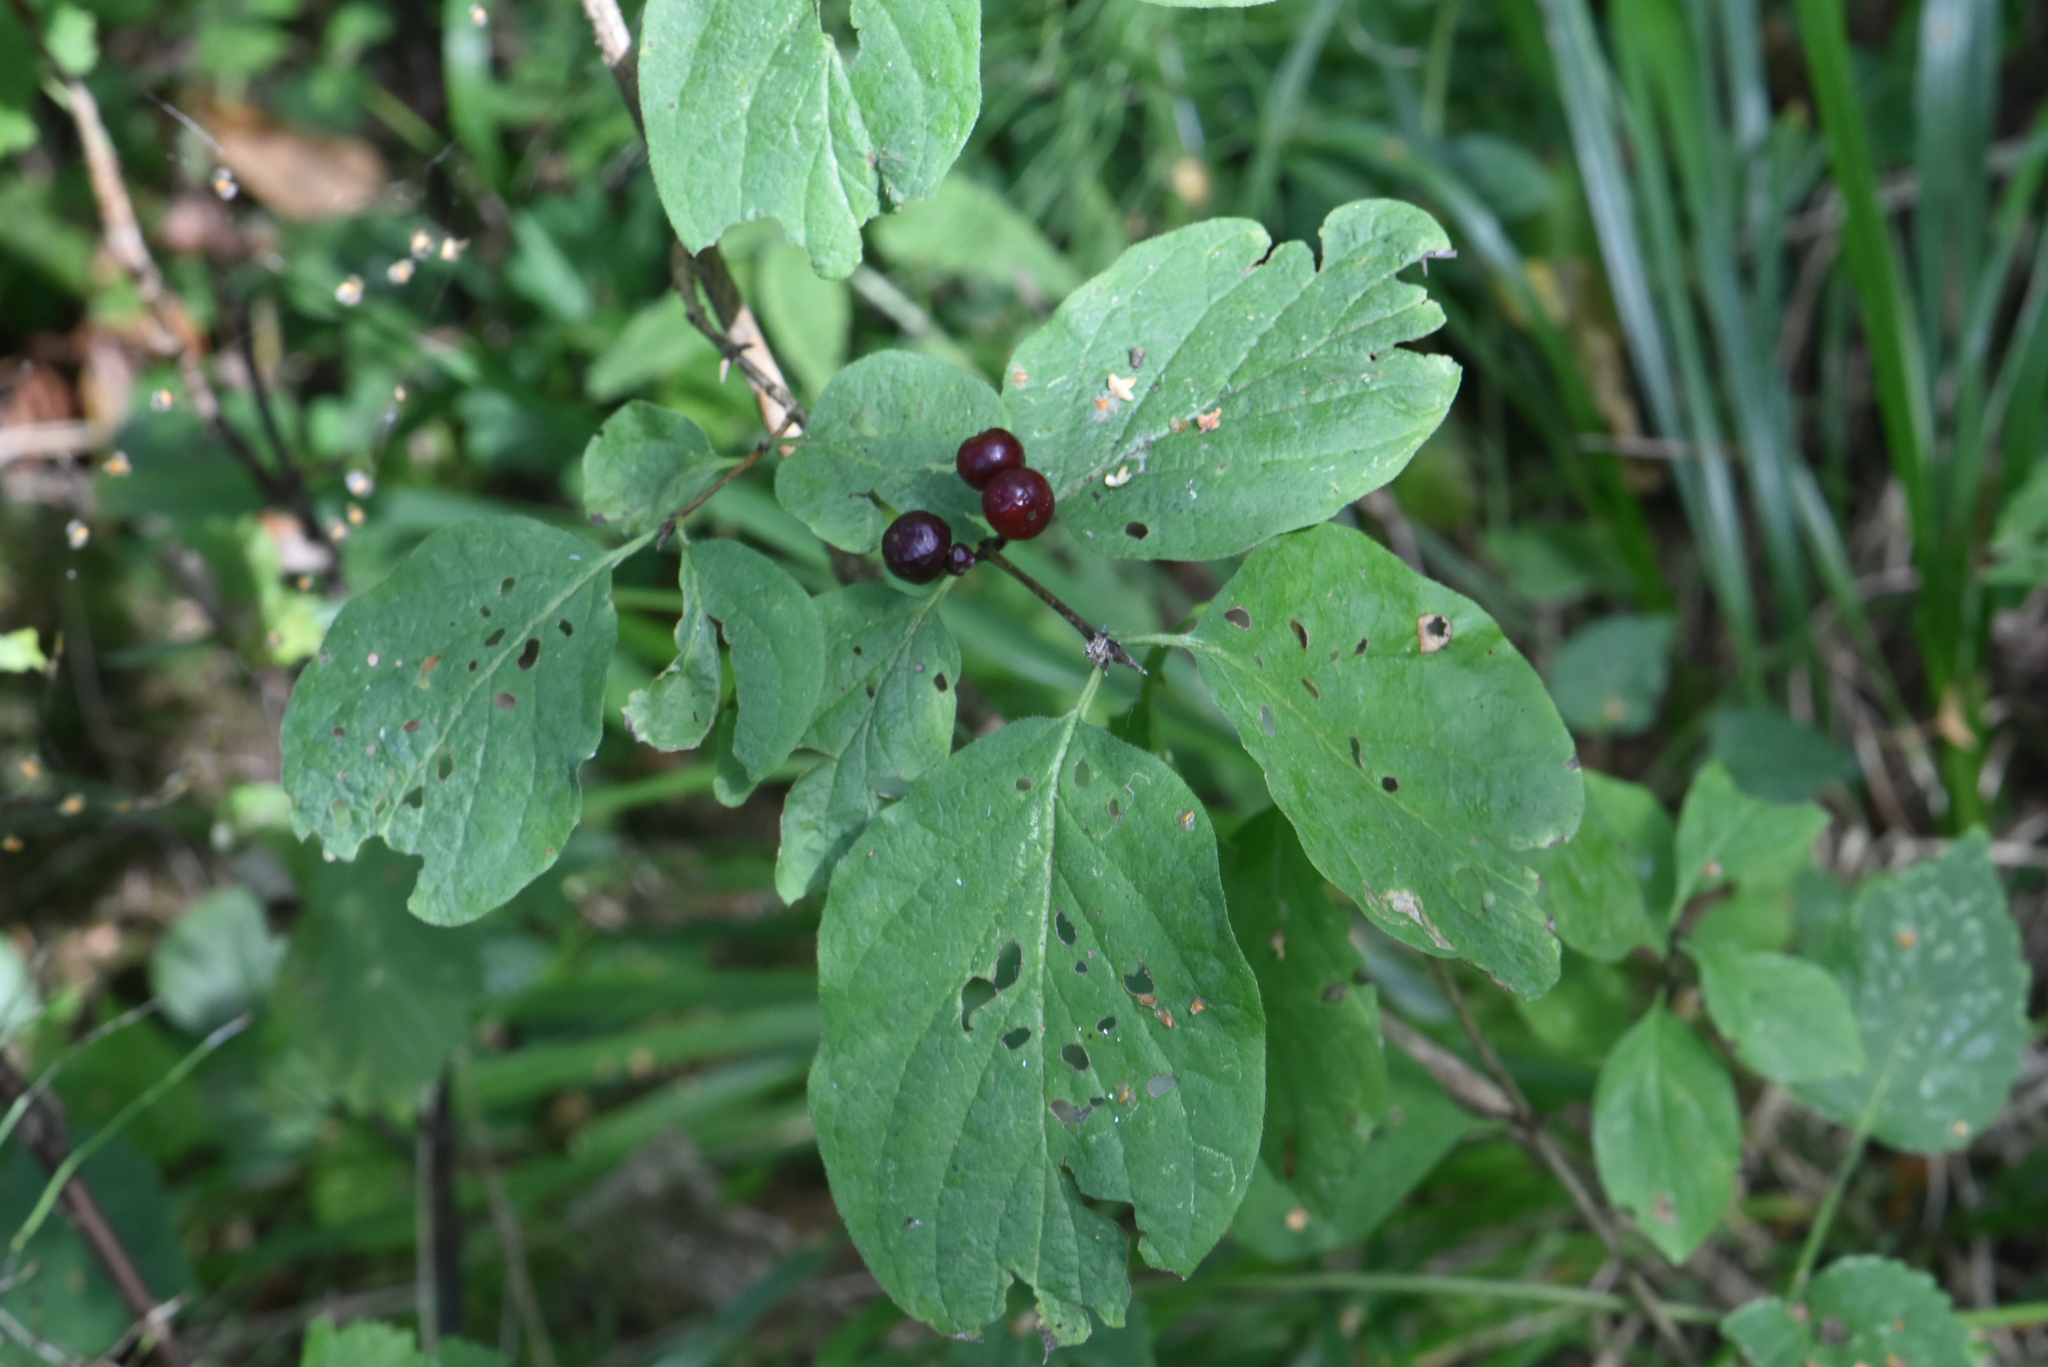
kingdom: Plantae
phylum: Tracheophyta
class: Magnoliopsida
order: Dipsacales
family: Caprifoliaceae
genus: Lonicera
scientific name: Lonicera xylosteum
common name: Fly honeysuckle
